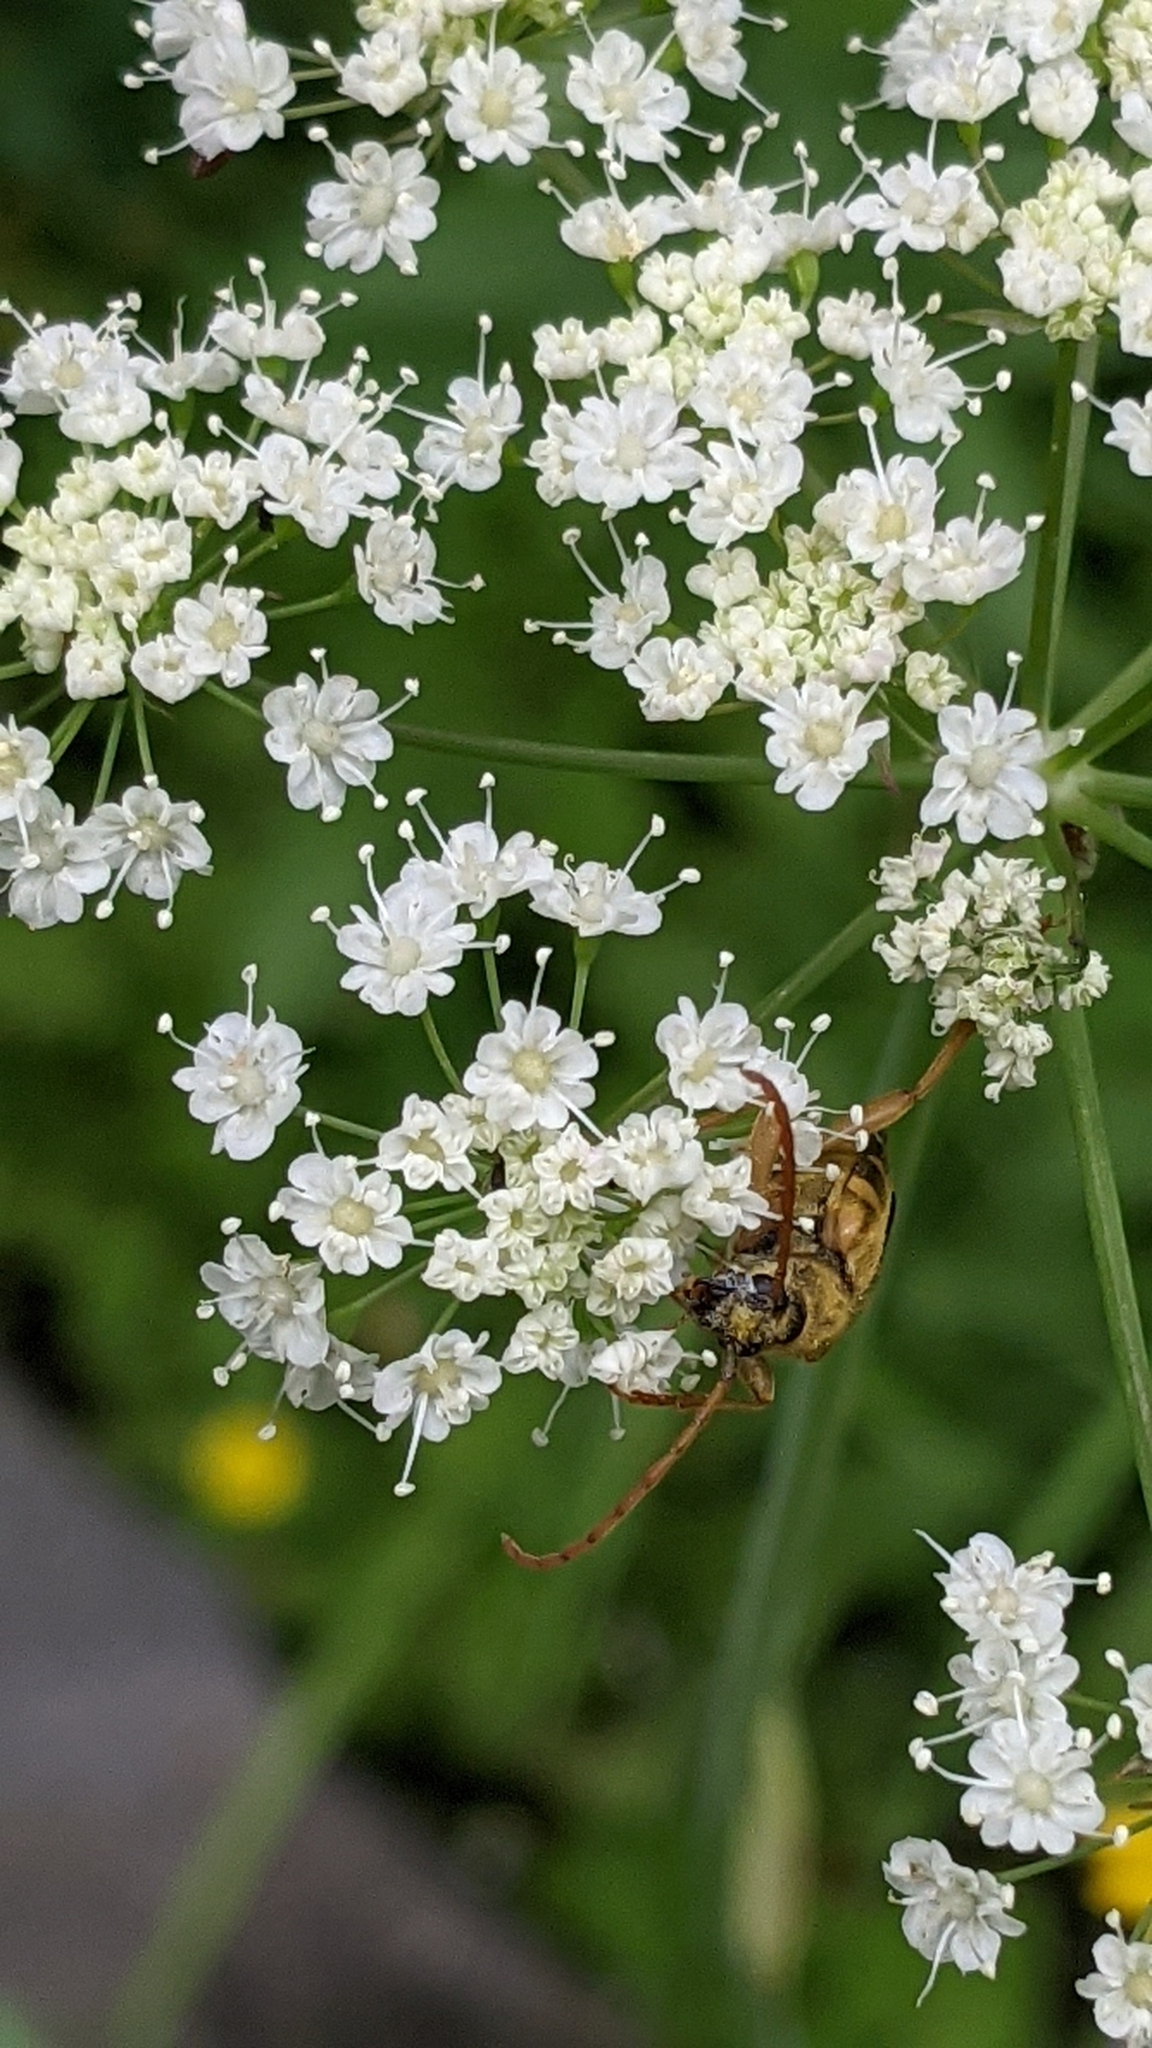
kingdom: Animalia
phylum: Arthropoda
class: Insecta
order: Coleoptera
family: Cerambycidae
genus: Xestoleptura
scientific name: Xestoleptura crassipes
